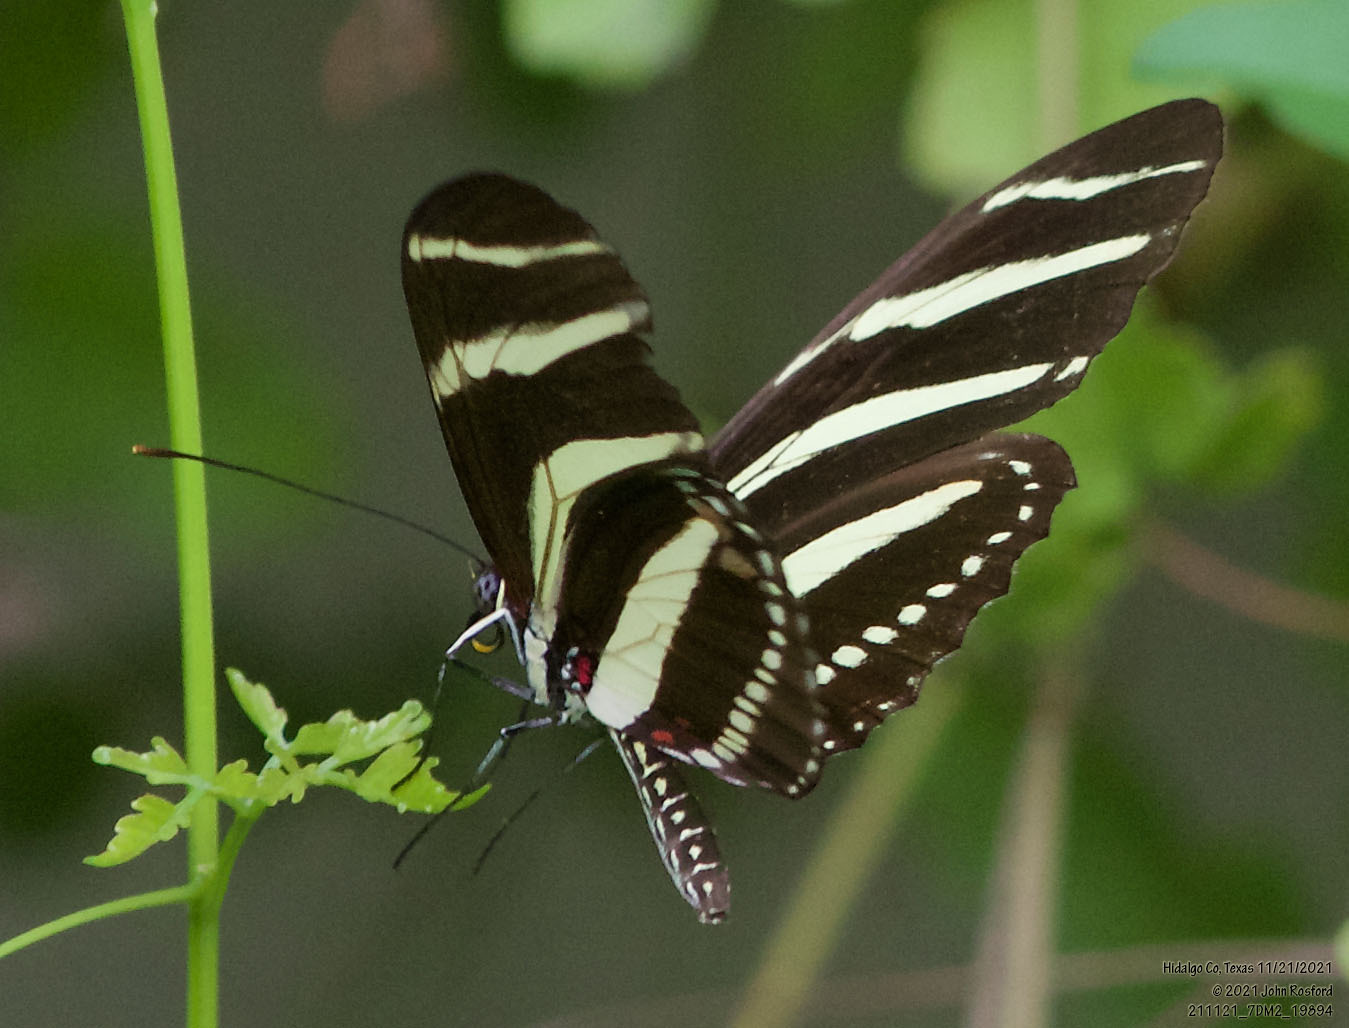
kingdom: Animalia
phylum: Arthropoda
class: Insecta
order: Lepidoptera
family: Nymphalidae
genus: Heliconius
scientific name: Heliconius charithonia
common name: Zebra long wing
